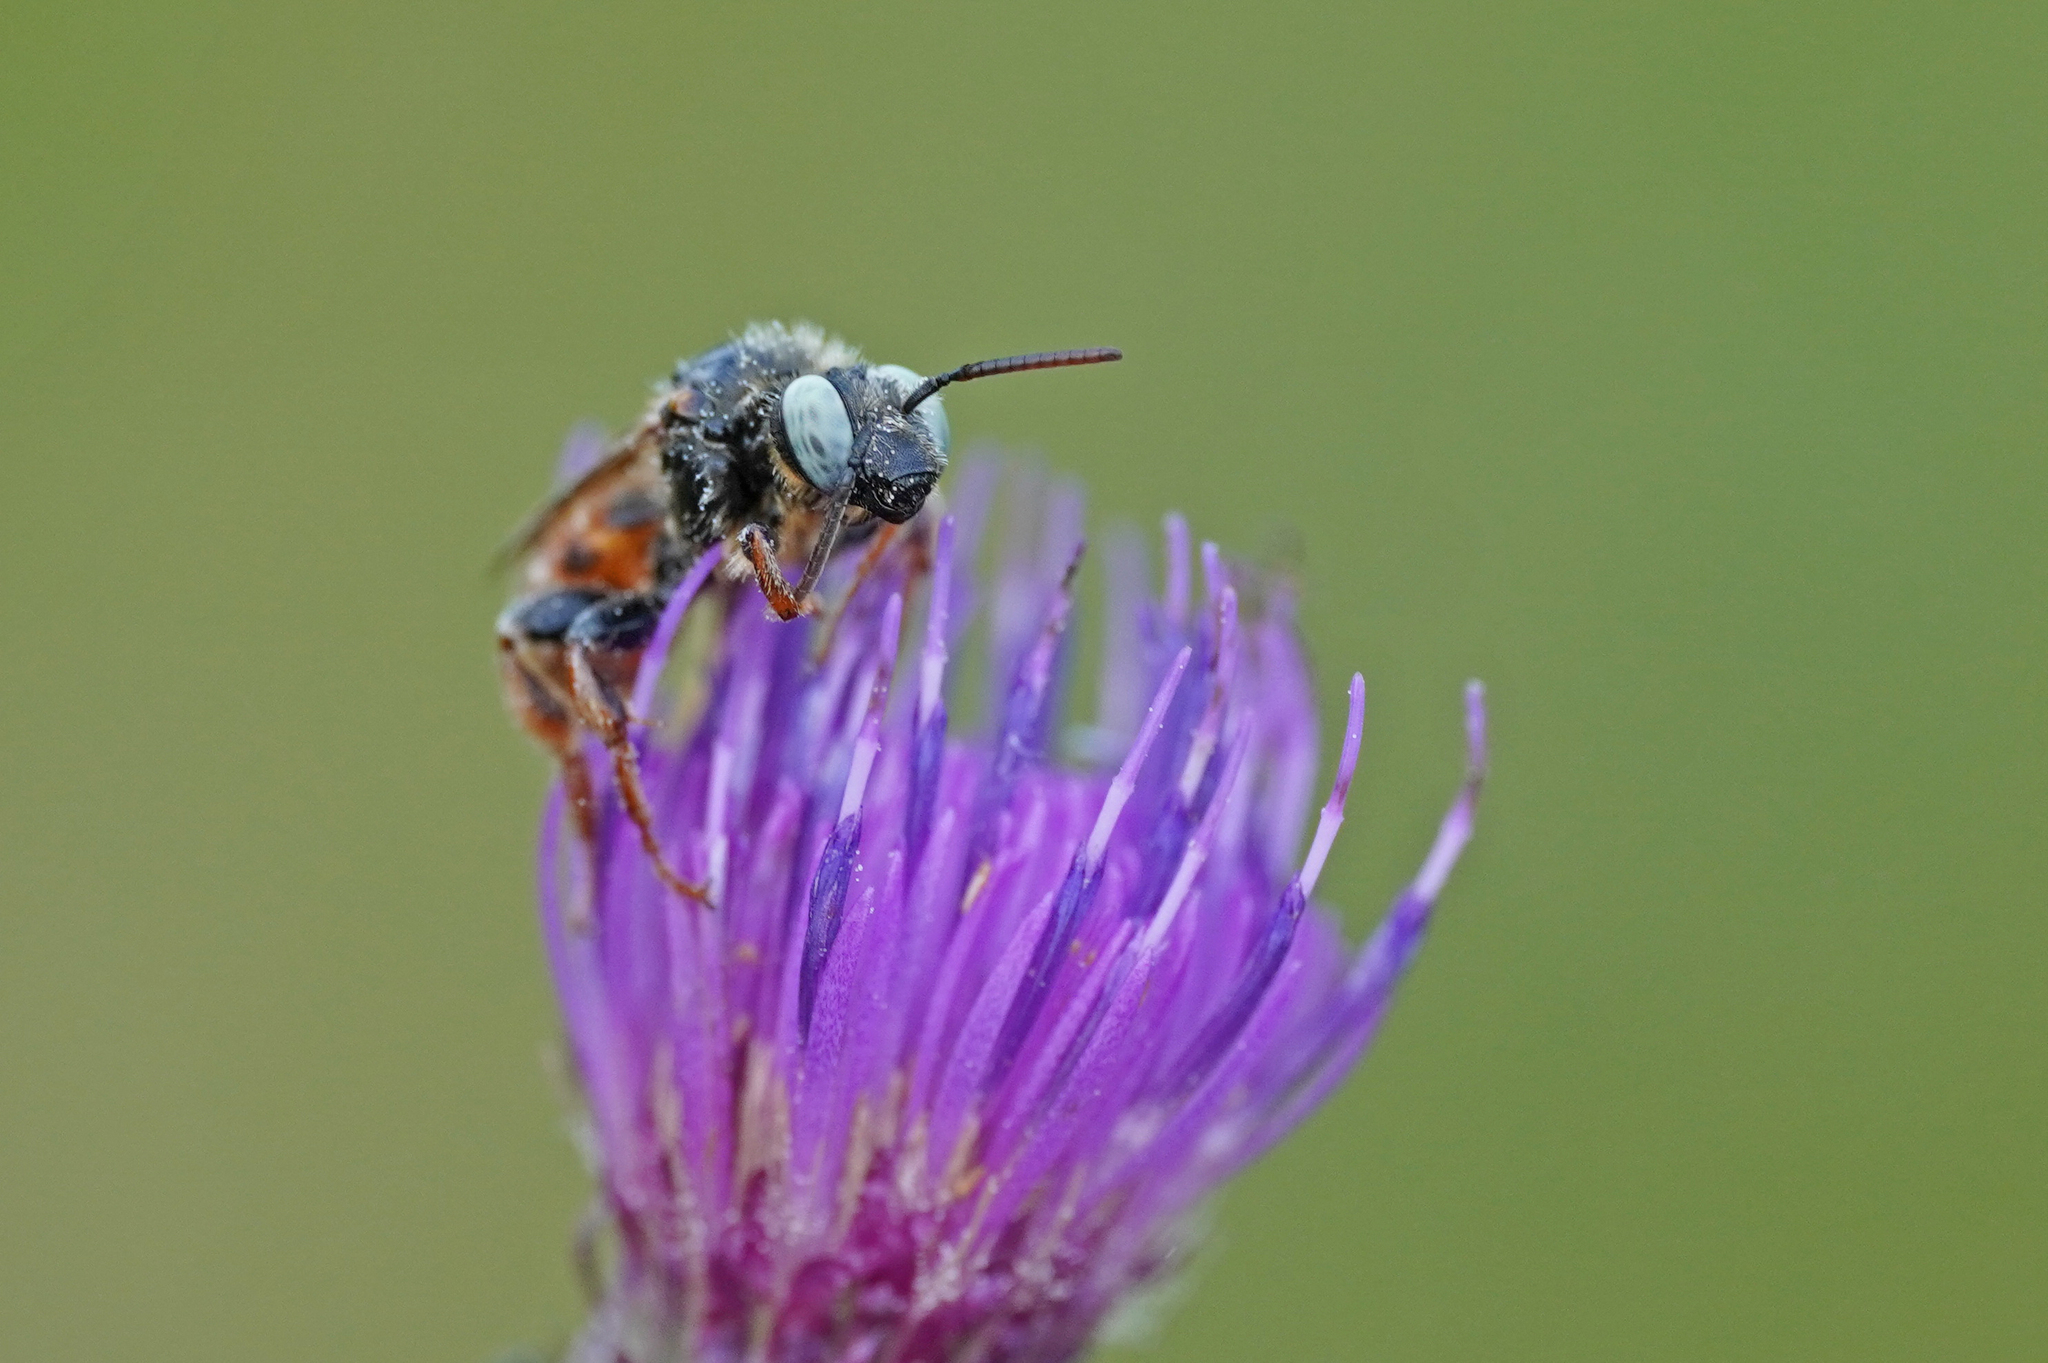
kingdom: Animalia
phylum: Arthropoda
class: Insecta
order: Hymenoptera
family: Apidae
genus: Epeoloides
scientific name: Epeoloides coecutiens
